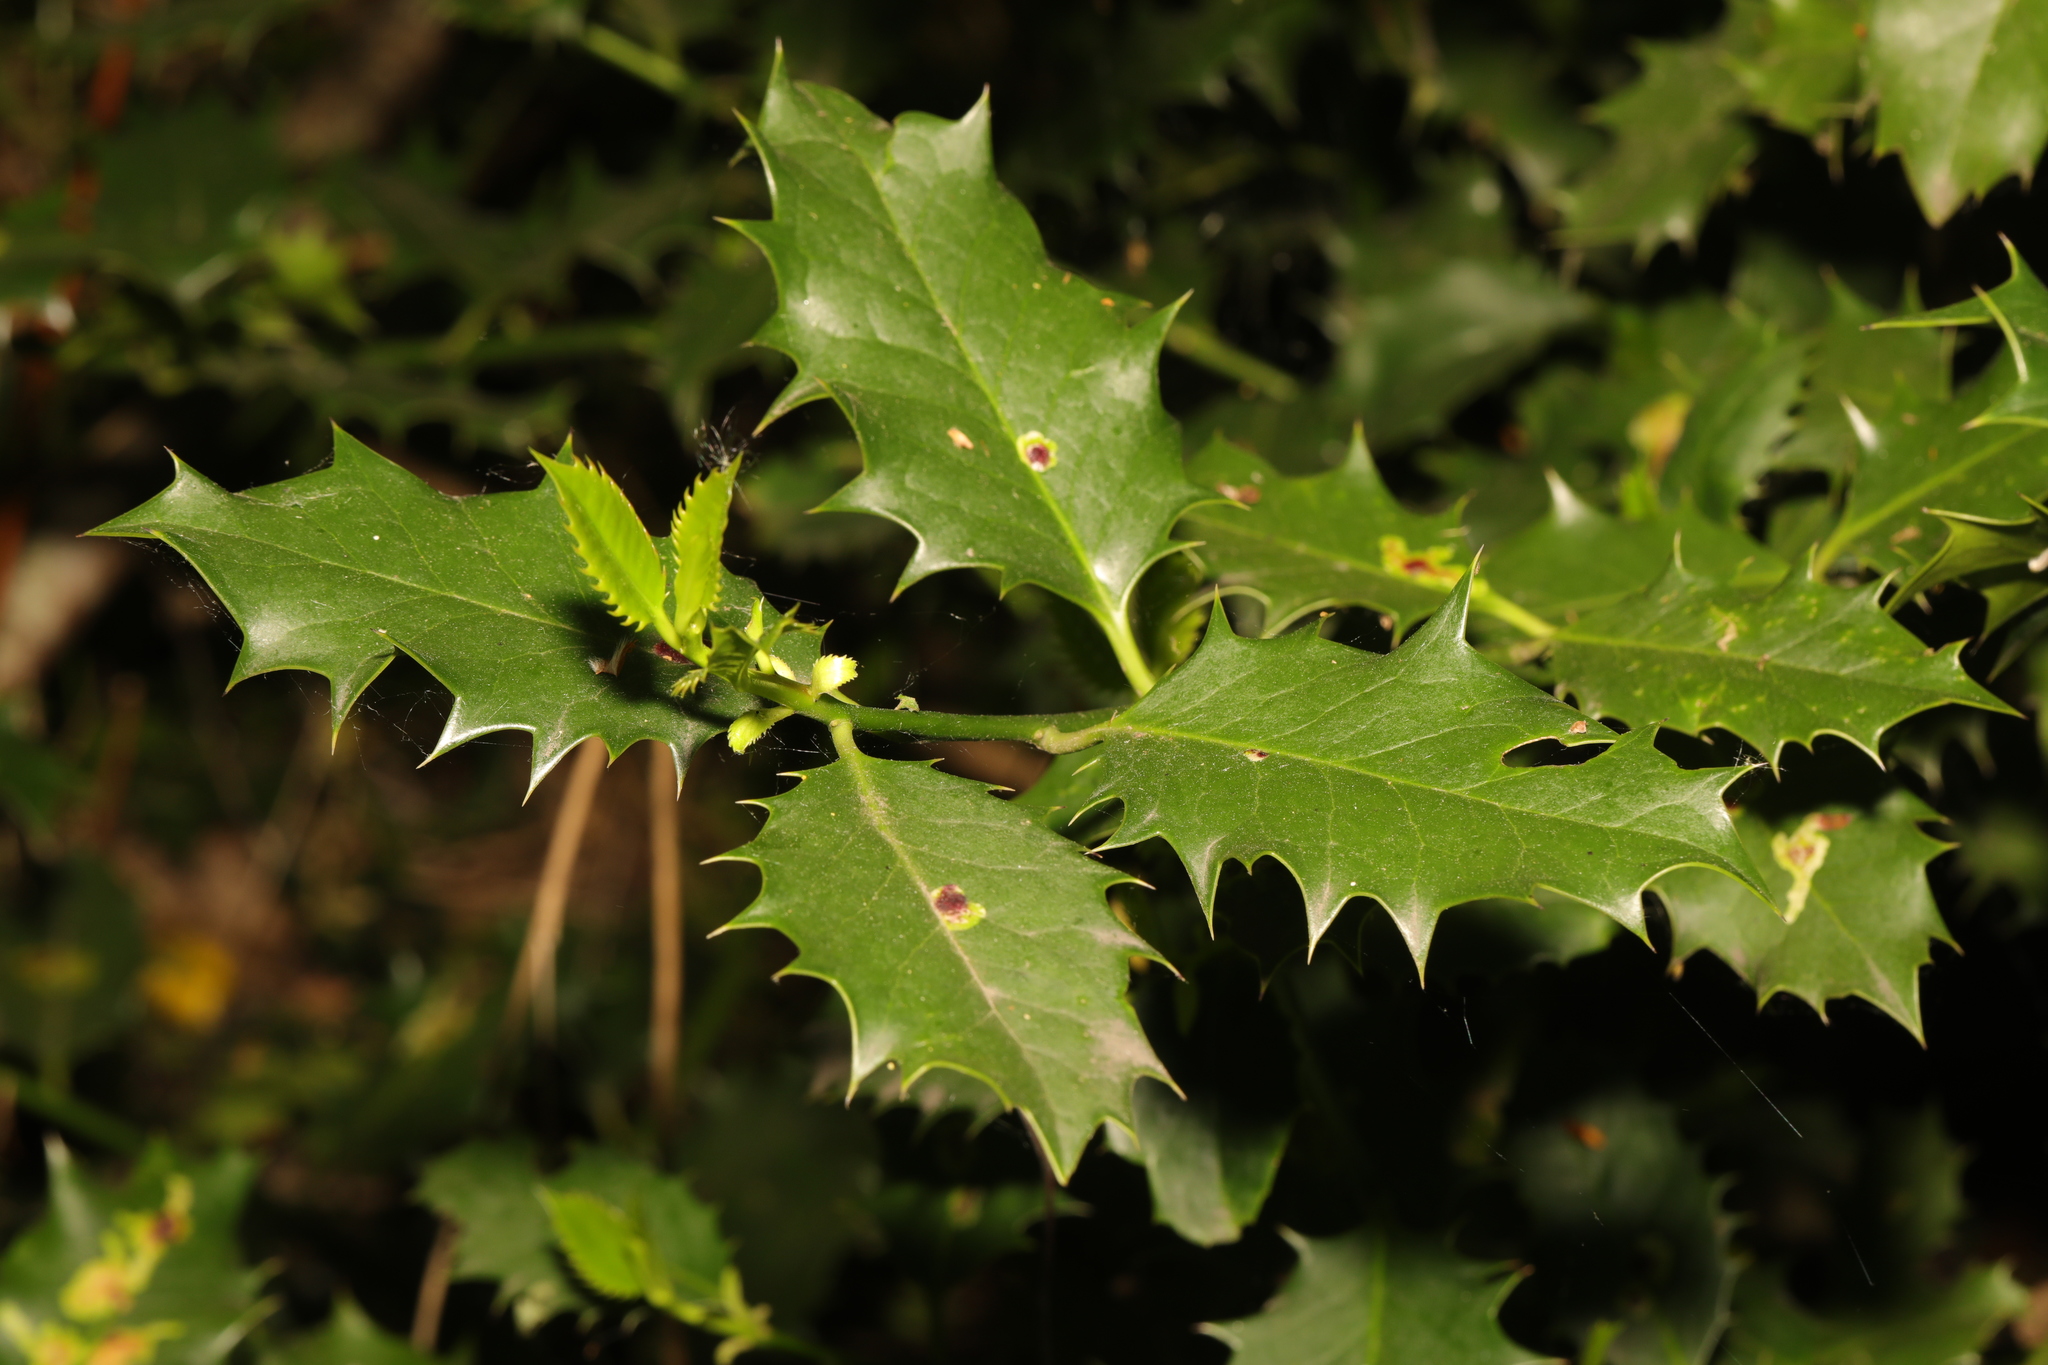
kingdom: Plantae
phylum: Tracheophyta
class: Magnoliopsida
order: Aquifoliales
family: Aquifoliaceae
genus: Ilex
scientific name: Ilex aquifolium
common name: English holly
